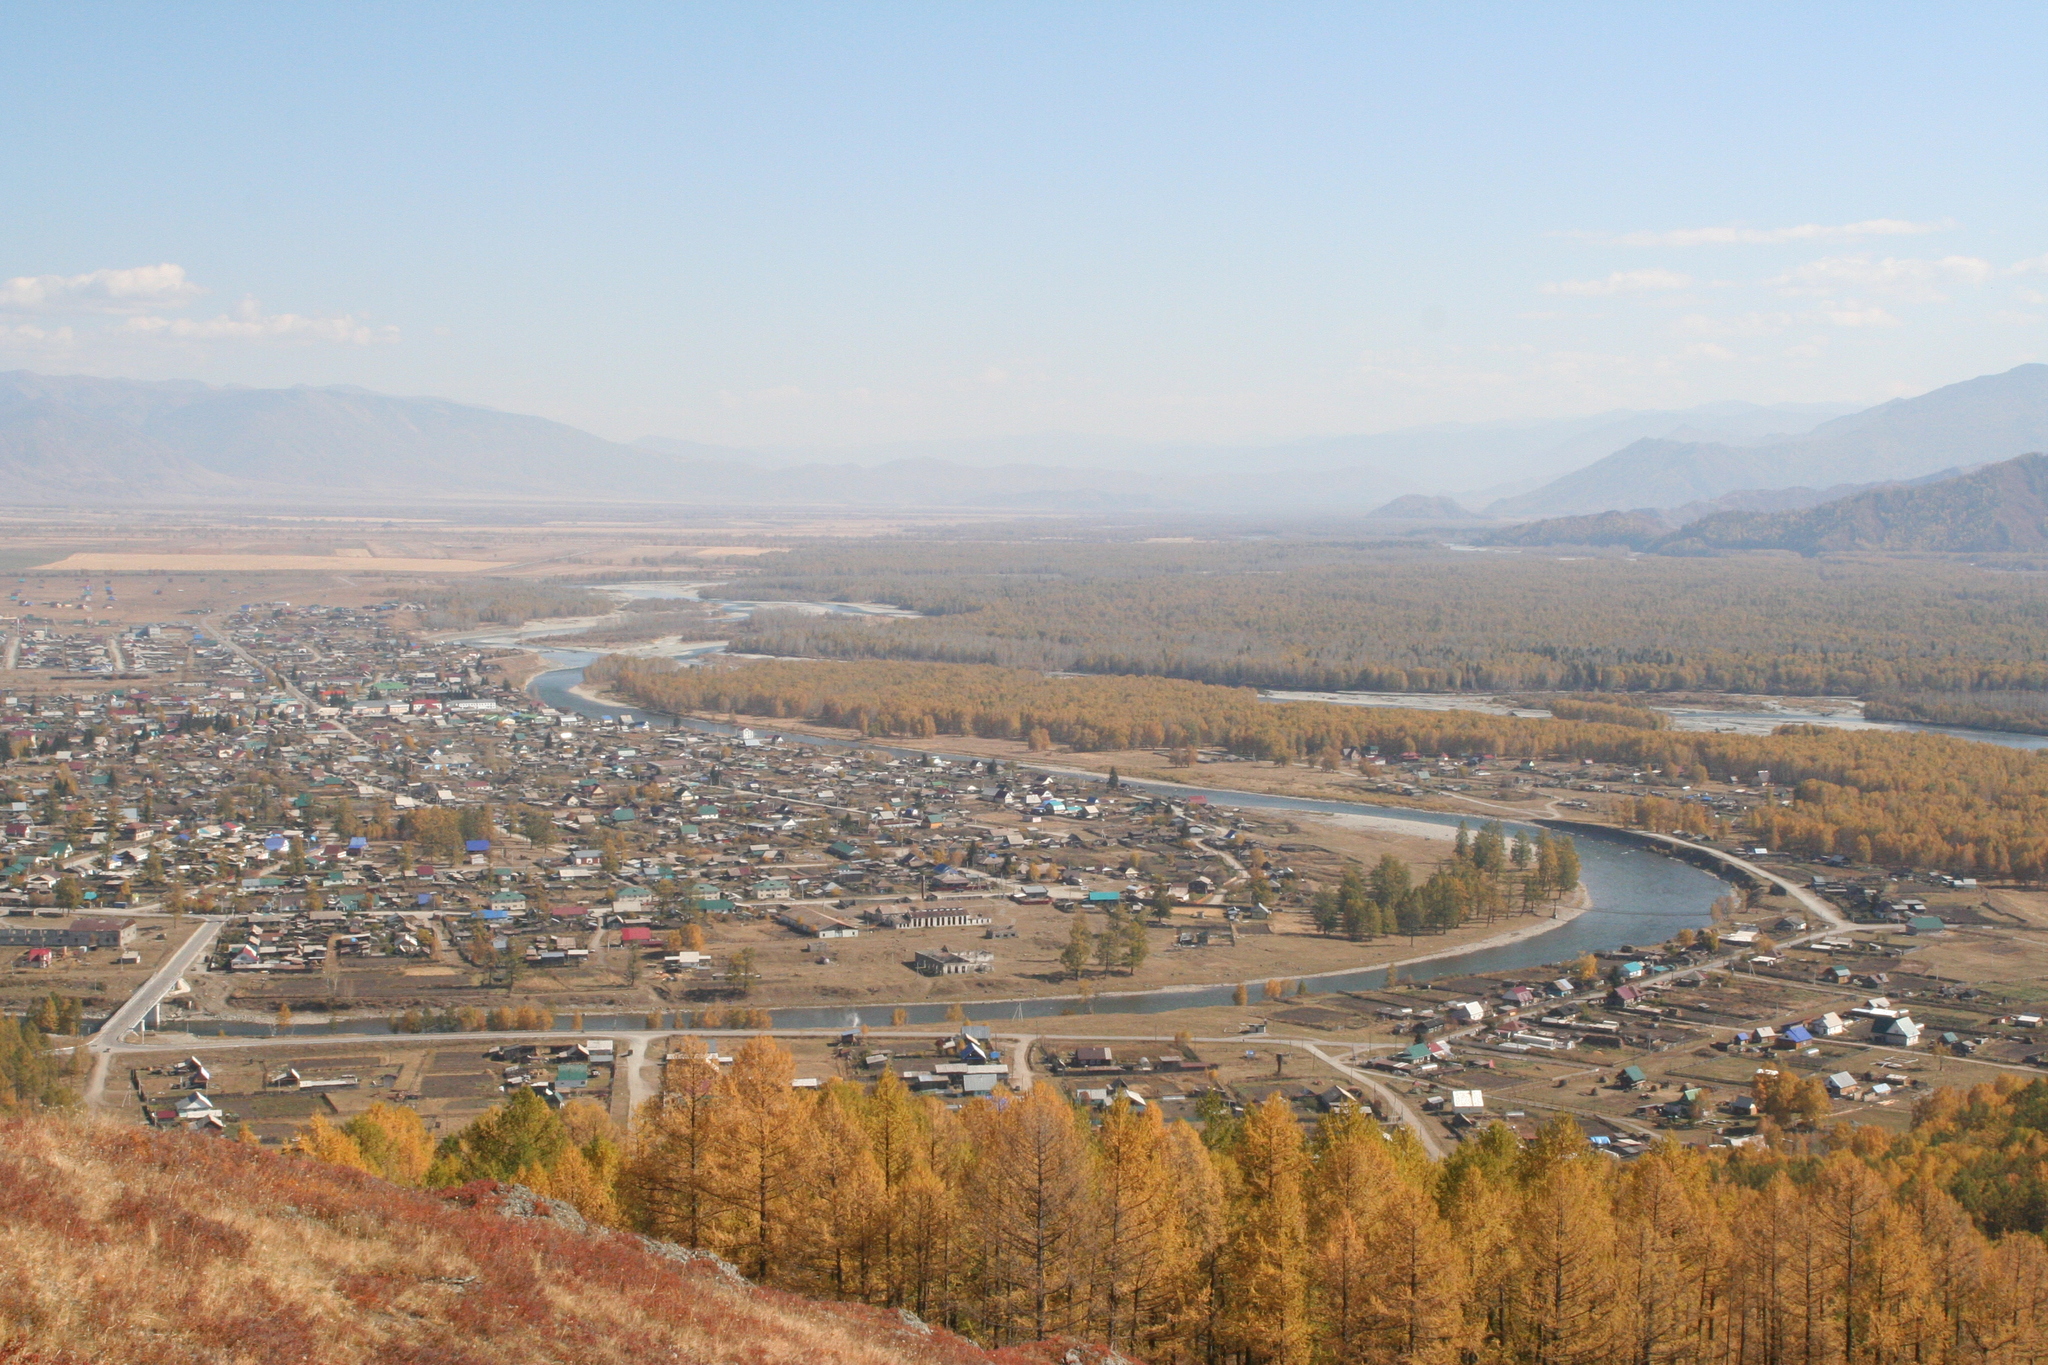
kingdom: Plantae
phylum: Tracheophyta
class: Pinopsida
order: Pinales
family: Pinaceae
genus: Larix
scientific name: Larix sibirica
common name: Siberian larch
